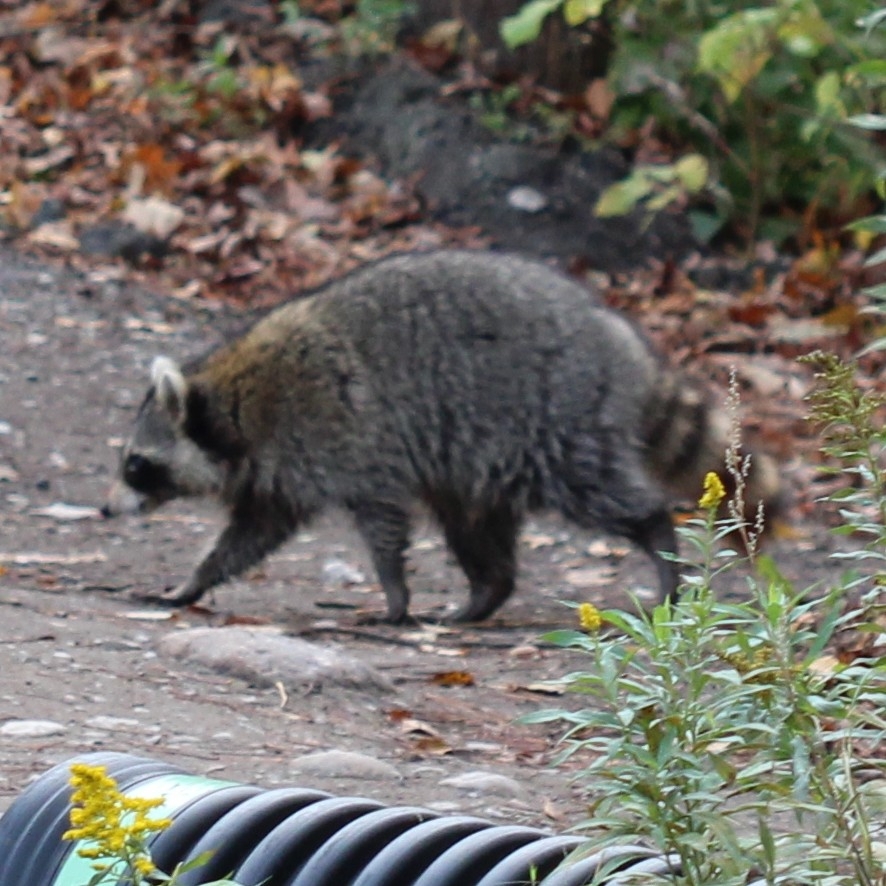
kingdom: Animalia
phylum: Chordata
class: Mammalia
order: Carnivora
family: Procyonidae
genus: Procyon
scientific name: Procyon lotor
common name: Raccoon
